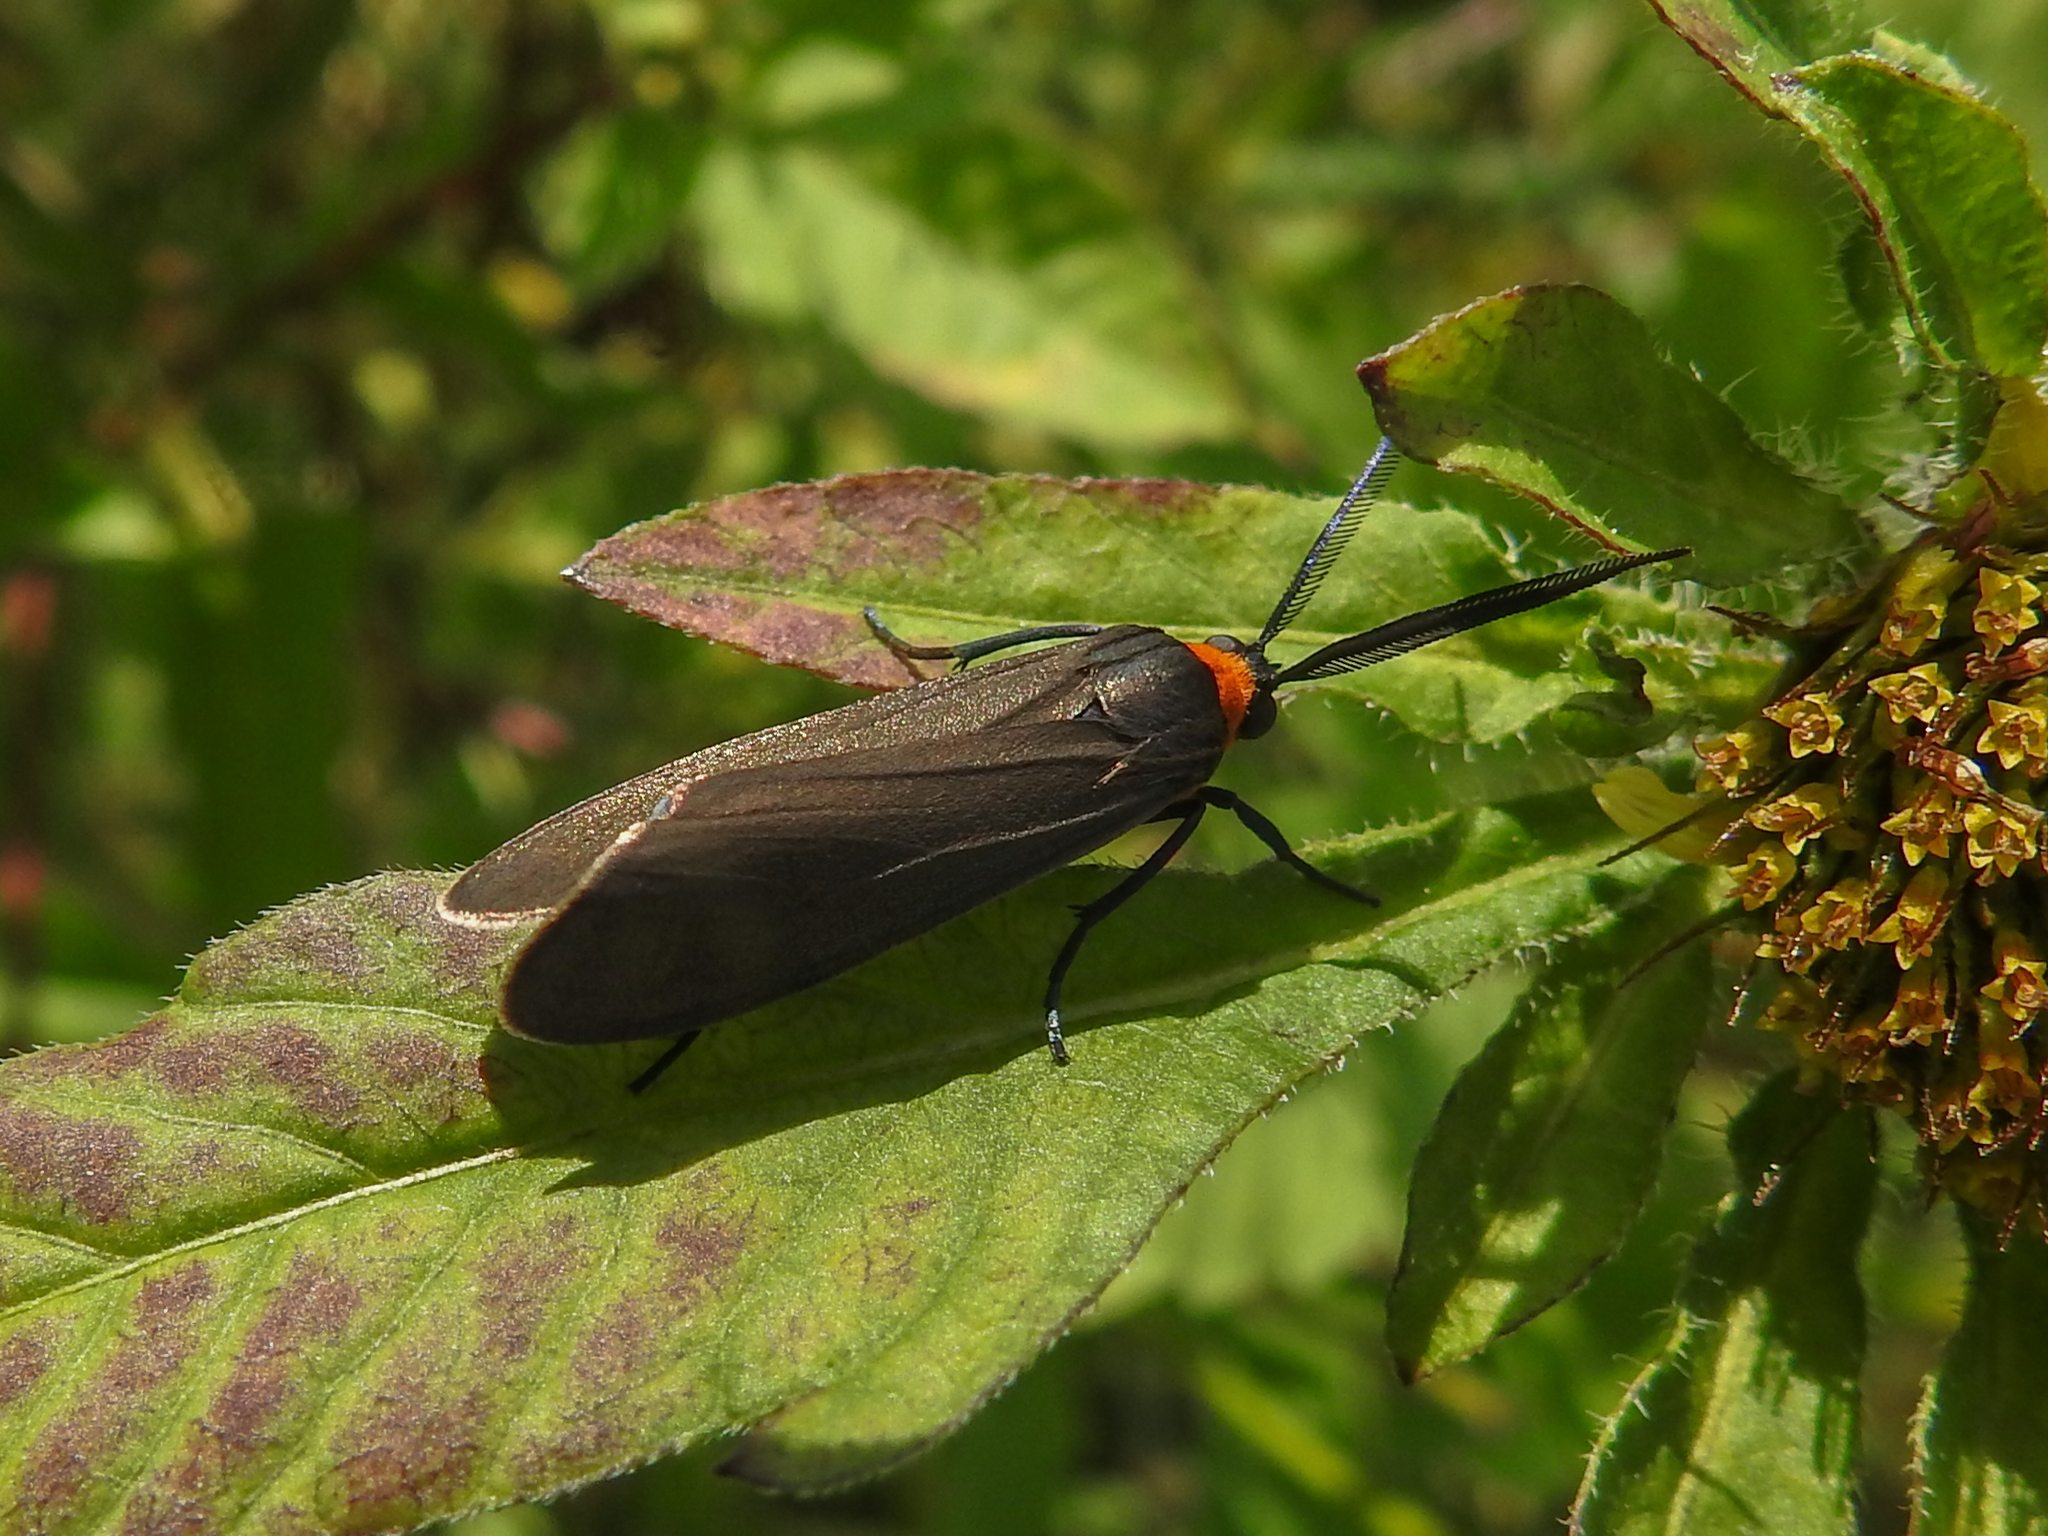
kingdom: Animalia
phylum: Arthropoda
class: Insecta
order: Lepidoptera
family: Erebidae
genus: Cisseps
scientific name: Cisseps fulvicollis
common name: Yellow-collared scape moth
